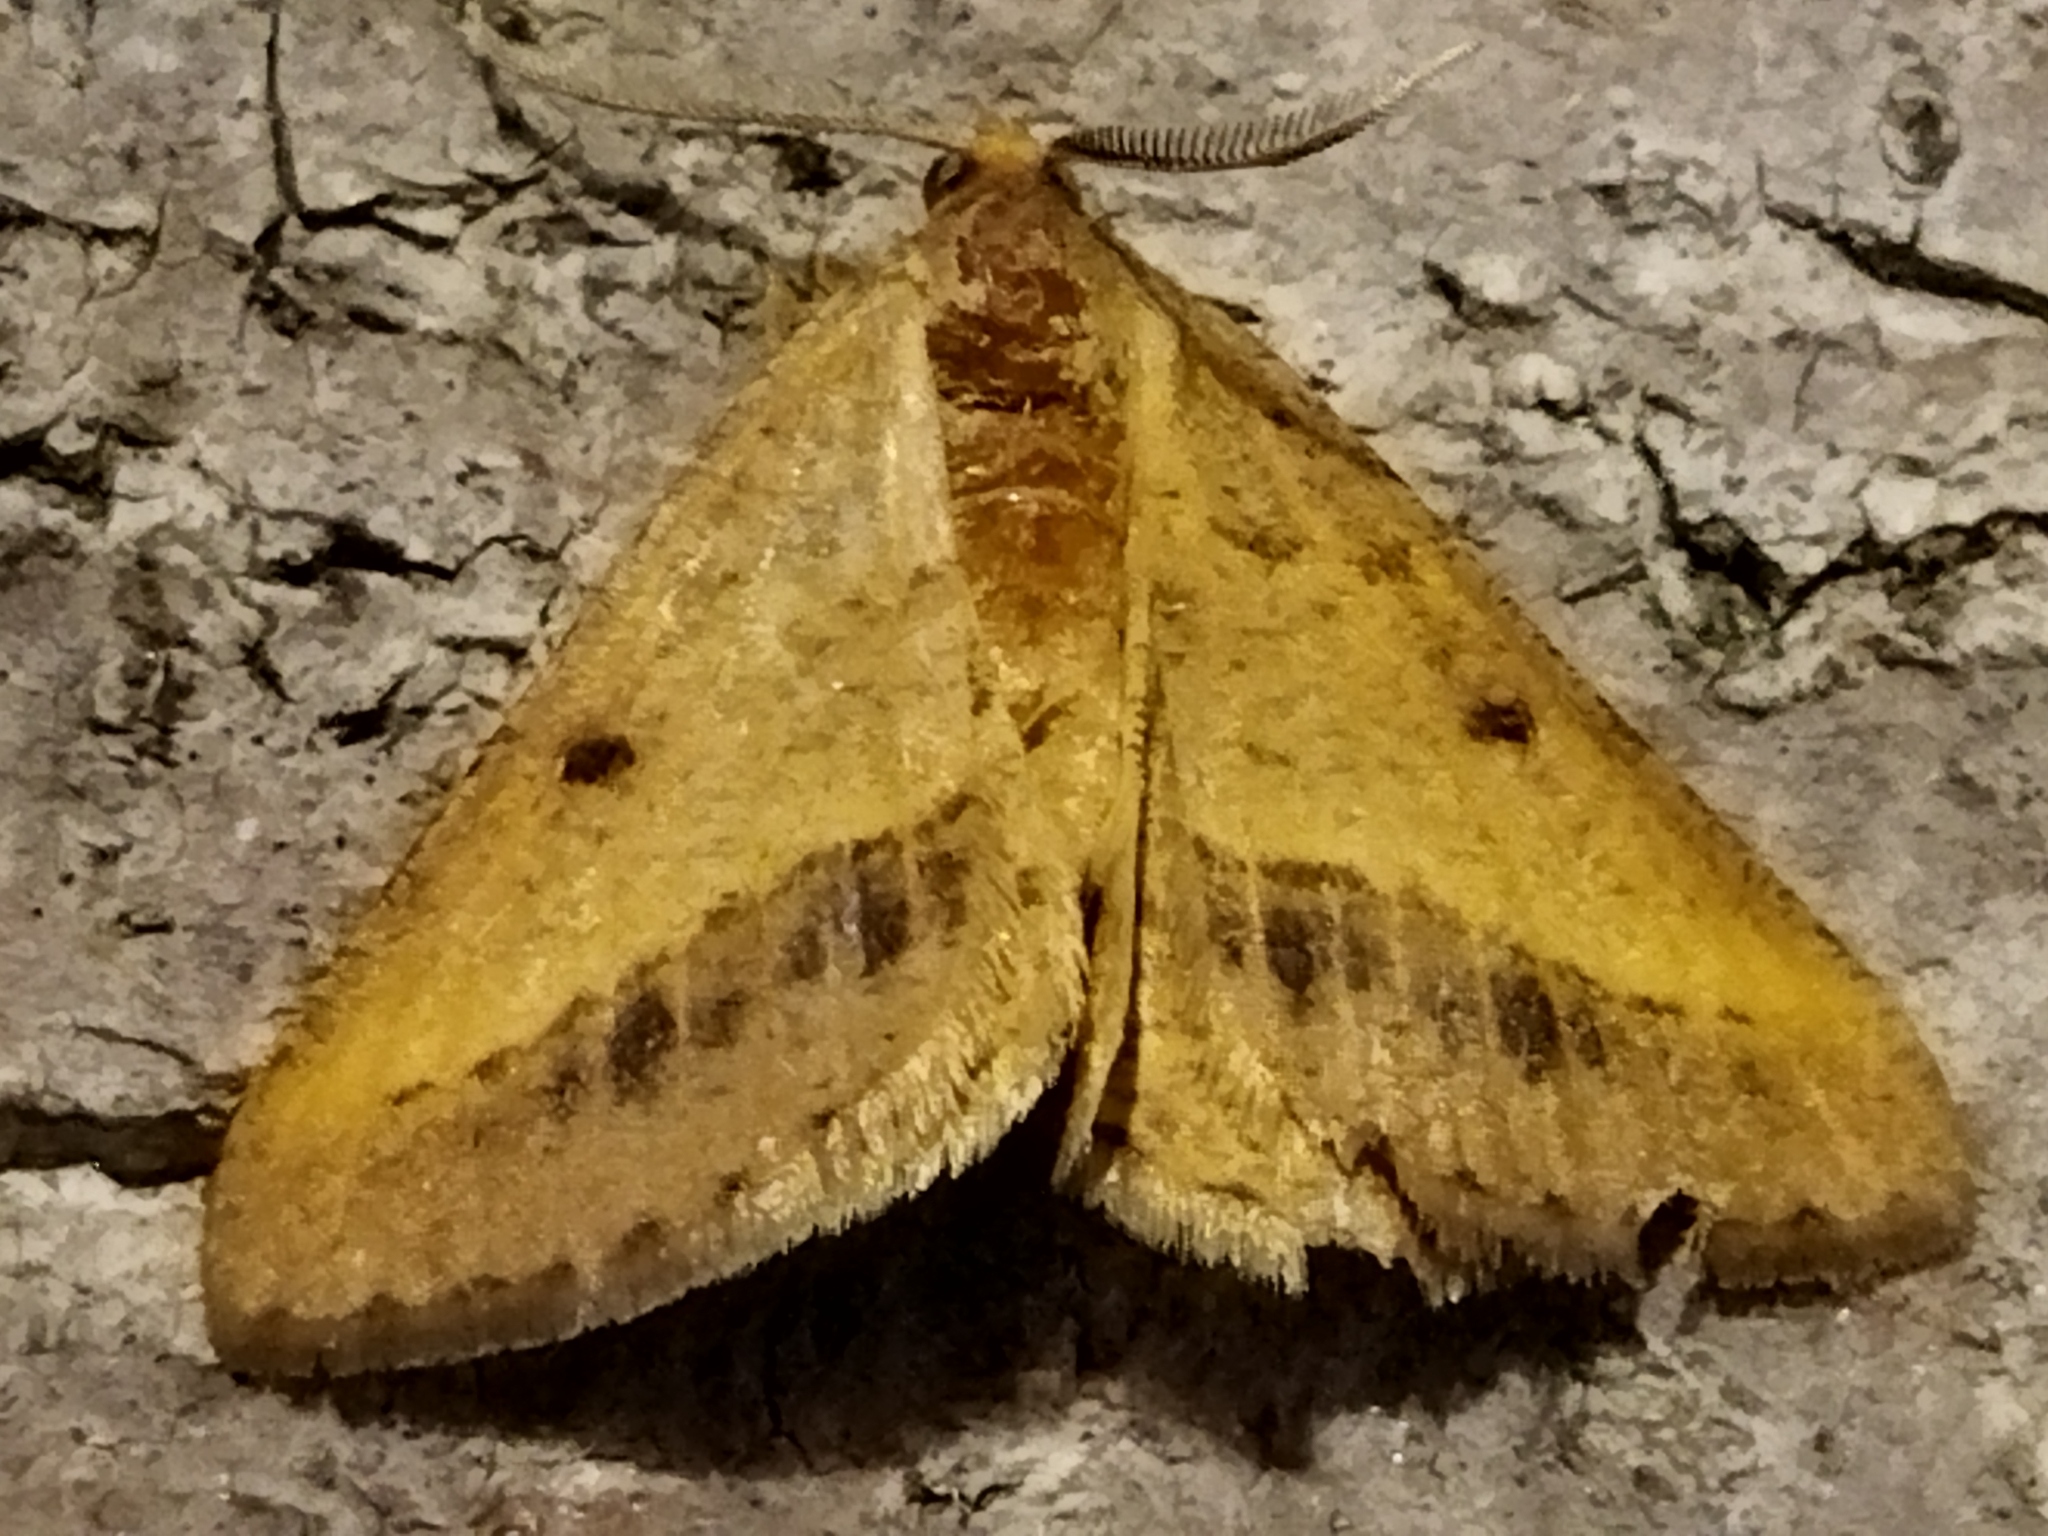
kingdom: Animalia
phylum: Arthropoda
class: Insecta
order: Lepidoptera
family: Geometridae
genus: Tephrina
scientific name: Tephrina arenacearia
